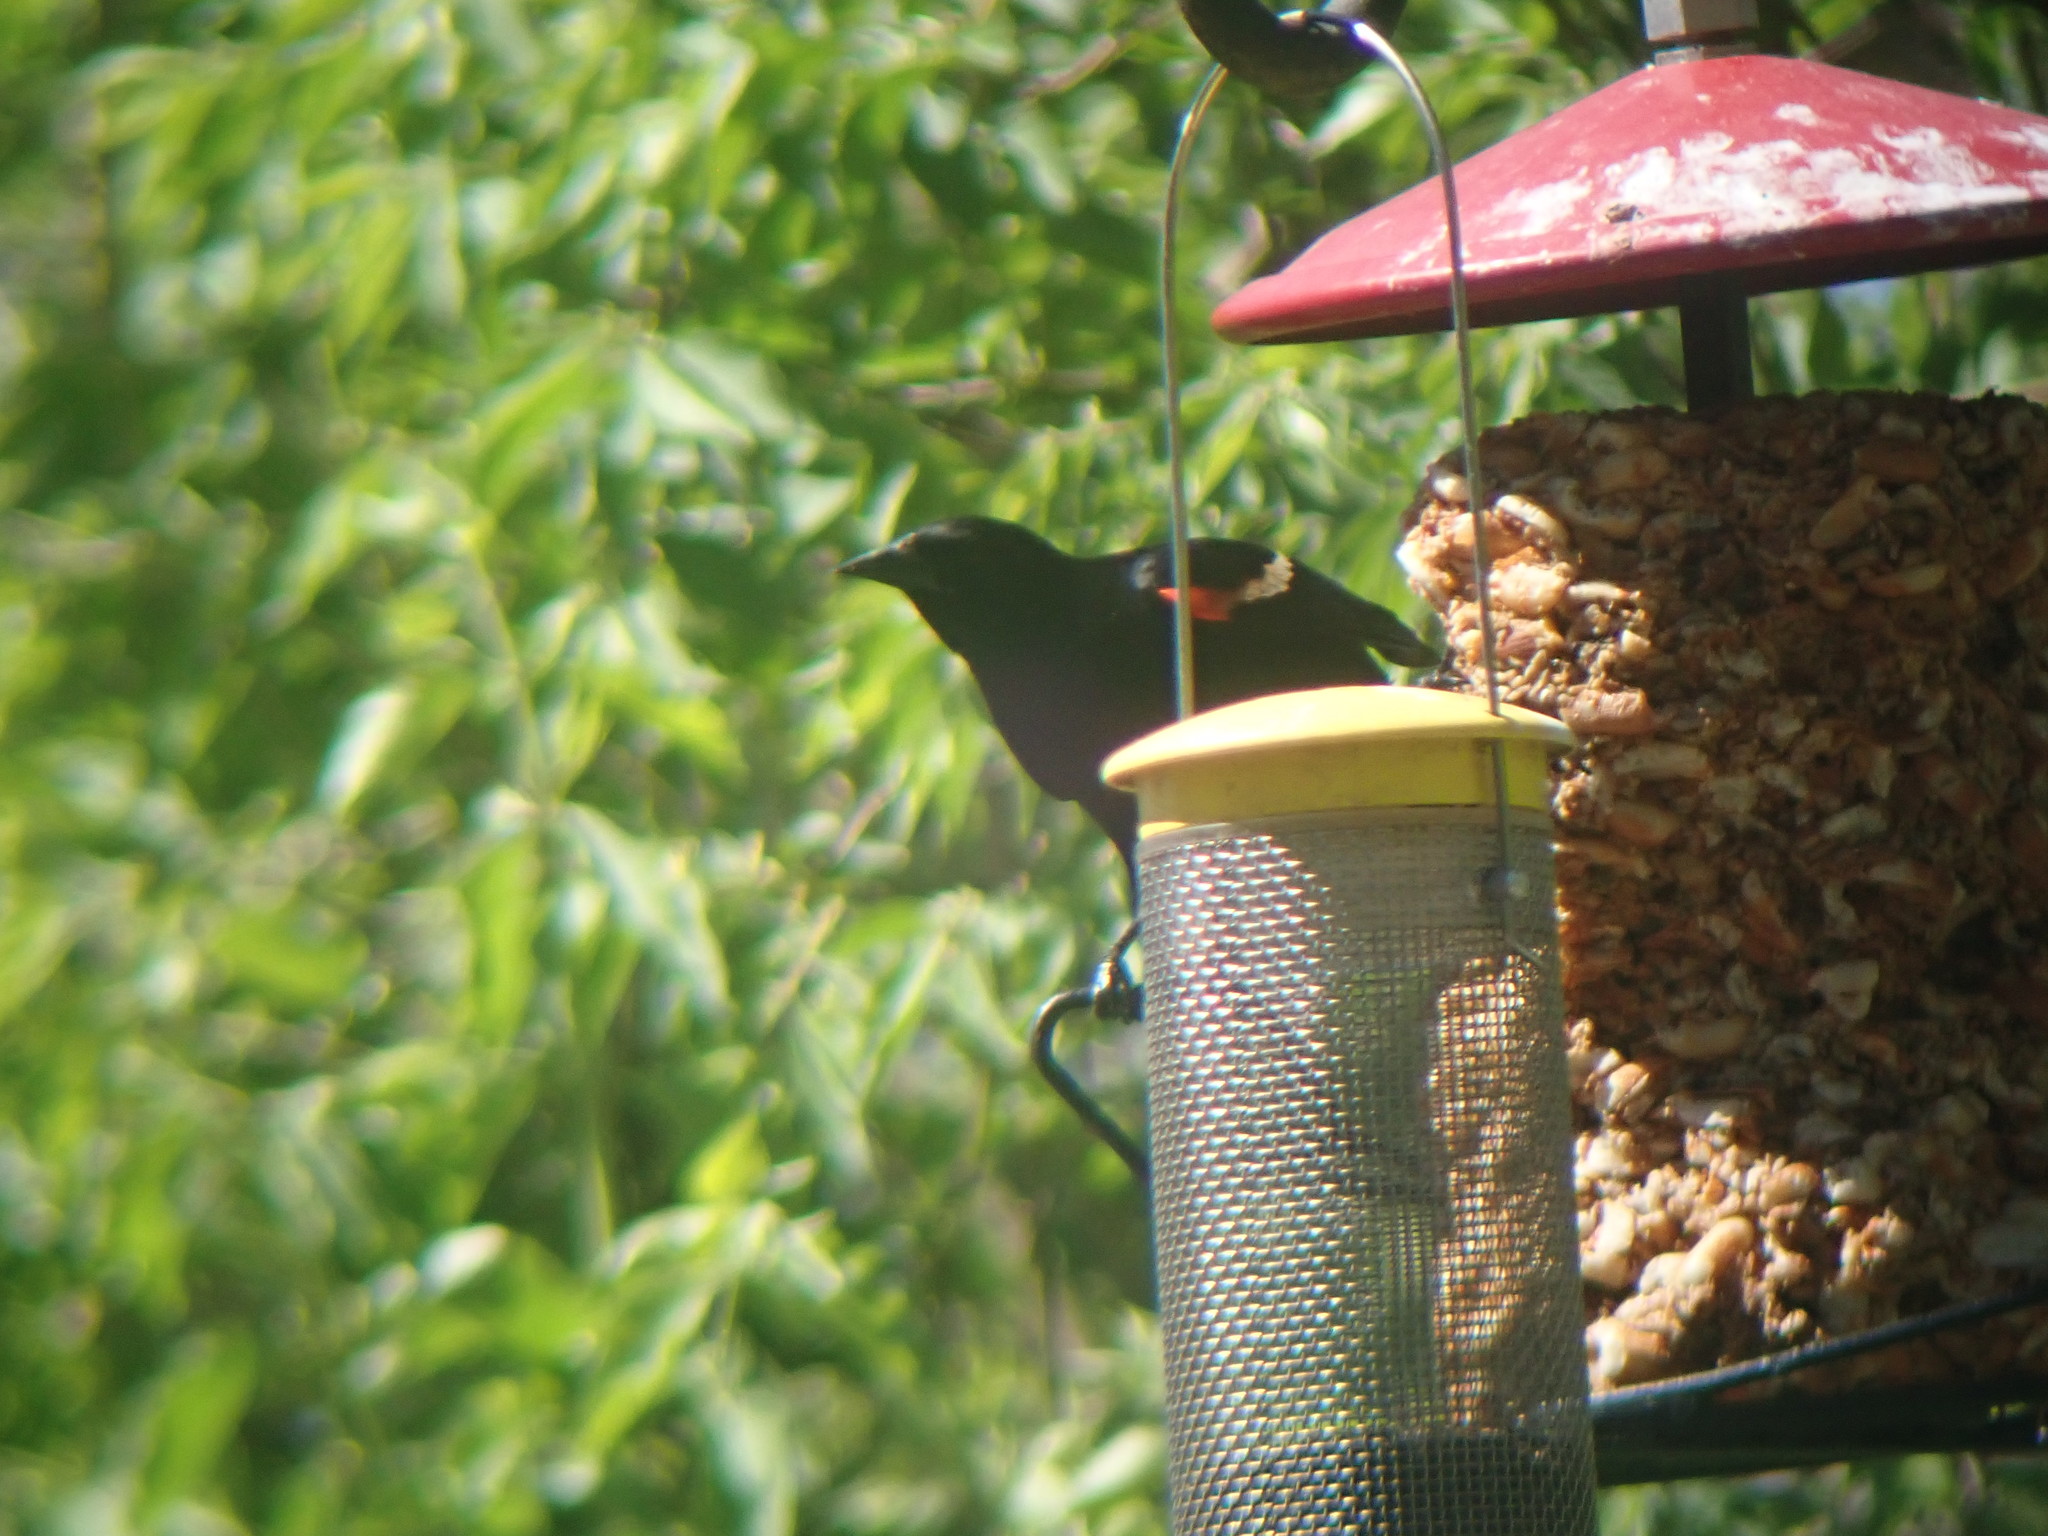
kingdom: Animalia
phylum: Chordata
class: Aves
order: Passeriformes
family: Icteridae
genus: Agelaius
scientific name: Agelaius phoeniceus
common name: Red-winged blackbird
